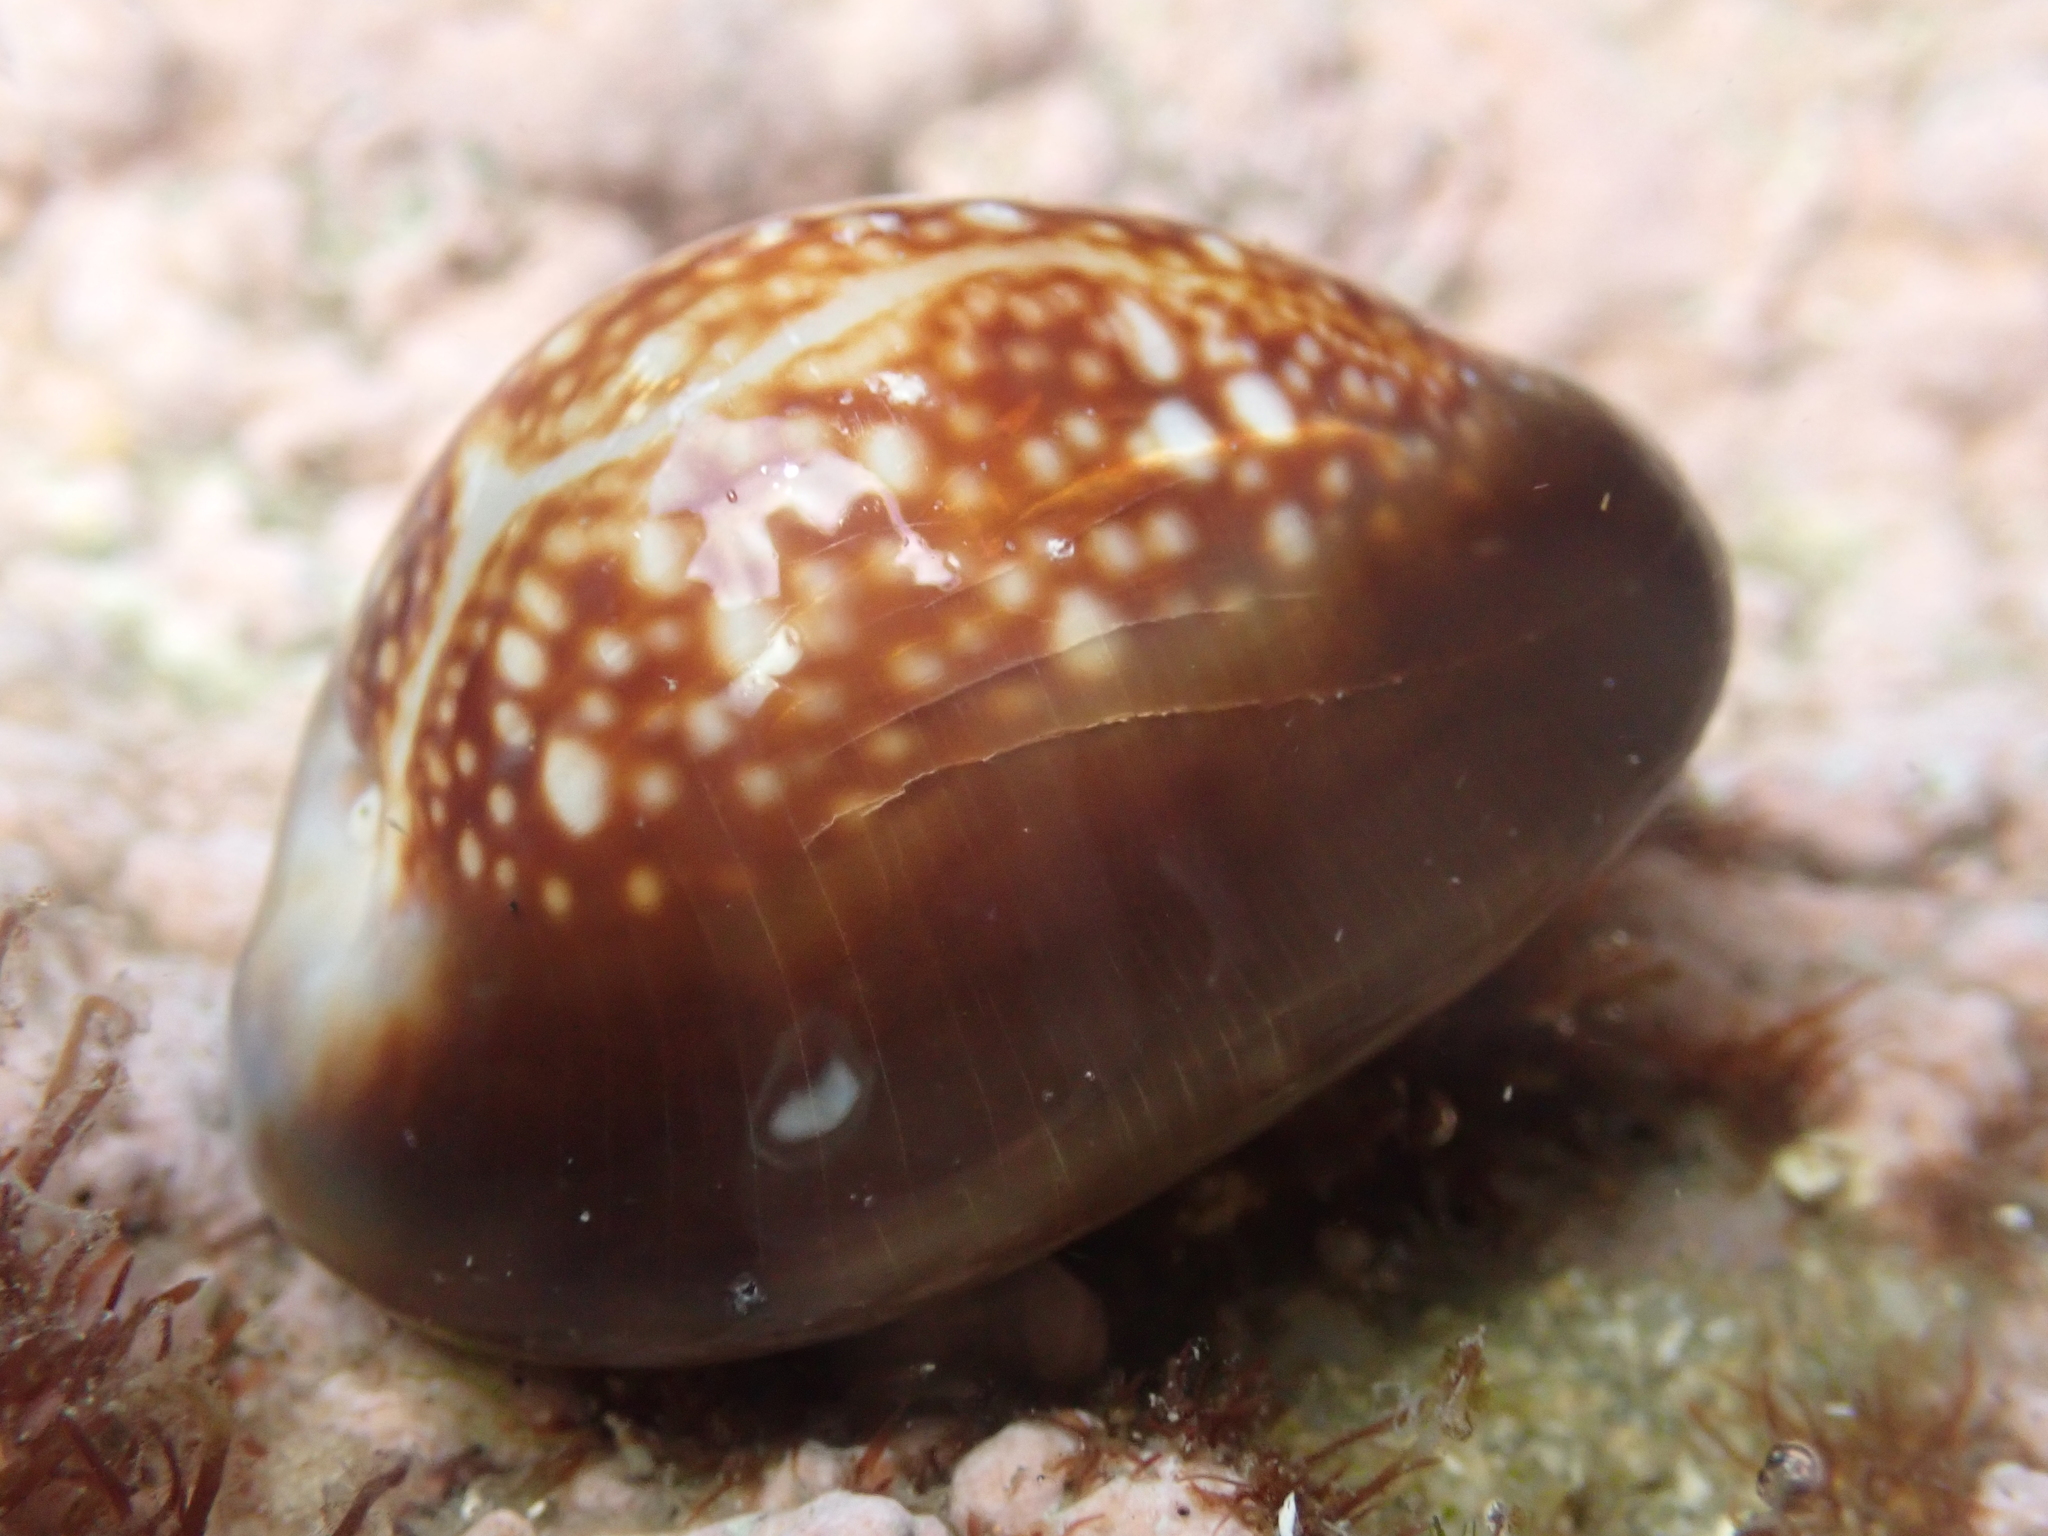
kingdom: Animalia
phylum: Mollusca
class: Gastropoda
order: Littorinimorpha
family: Cypraeidae
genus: Monetaria
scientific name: Monetaria caputserpentis
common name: Serpent's head cowrie
